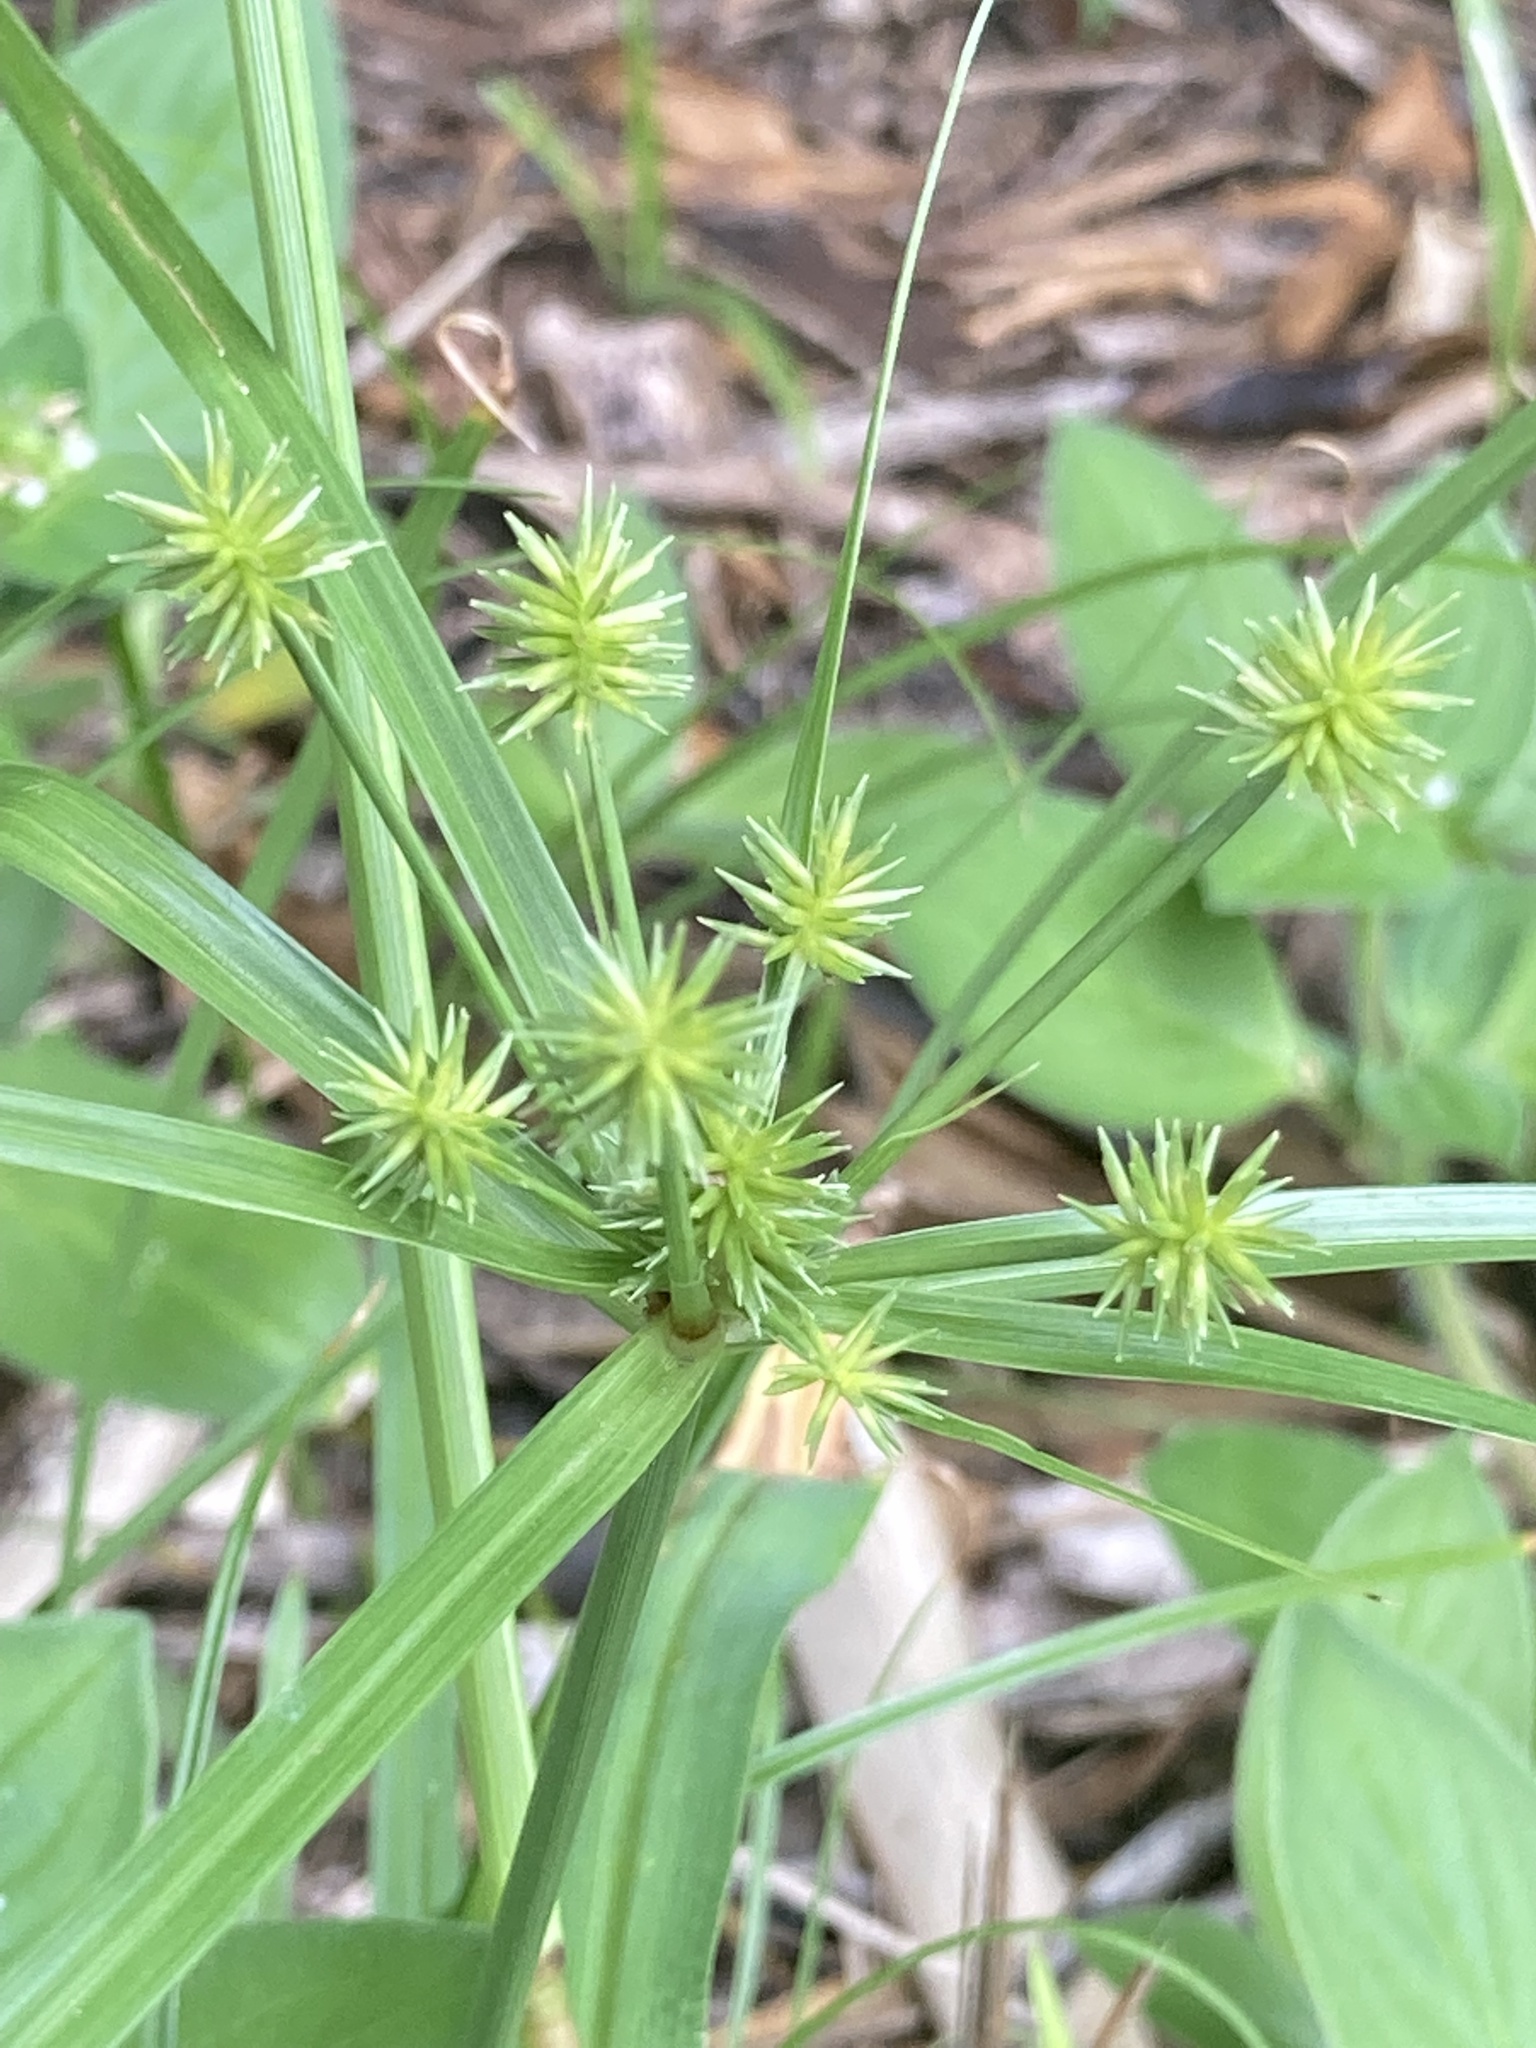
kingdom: Plantae
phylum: Tracheophyta
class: Liliopsida
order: Poales
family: Cyperaceae
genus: Cyperus
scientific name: Cyperus croceus
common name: Baldwin's flatsedge
